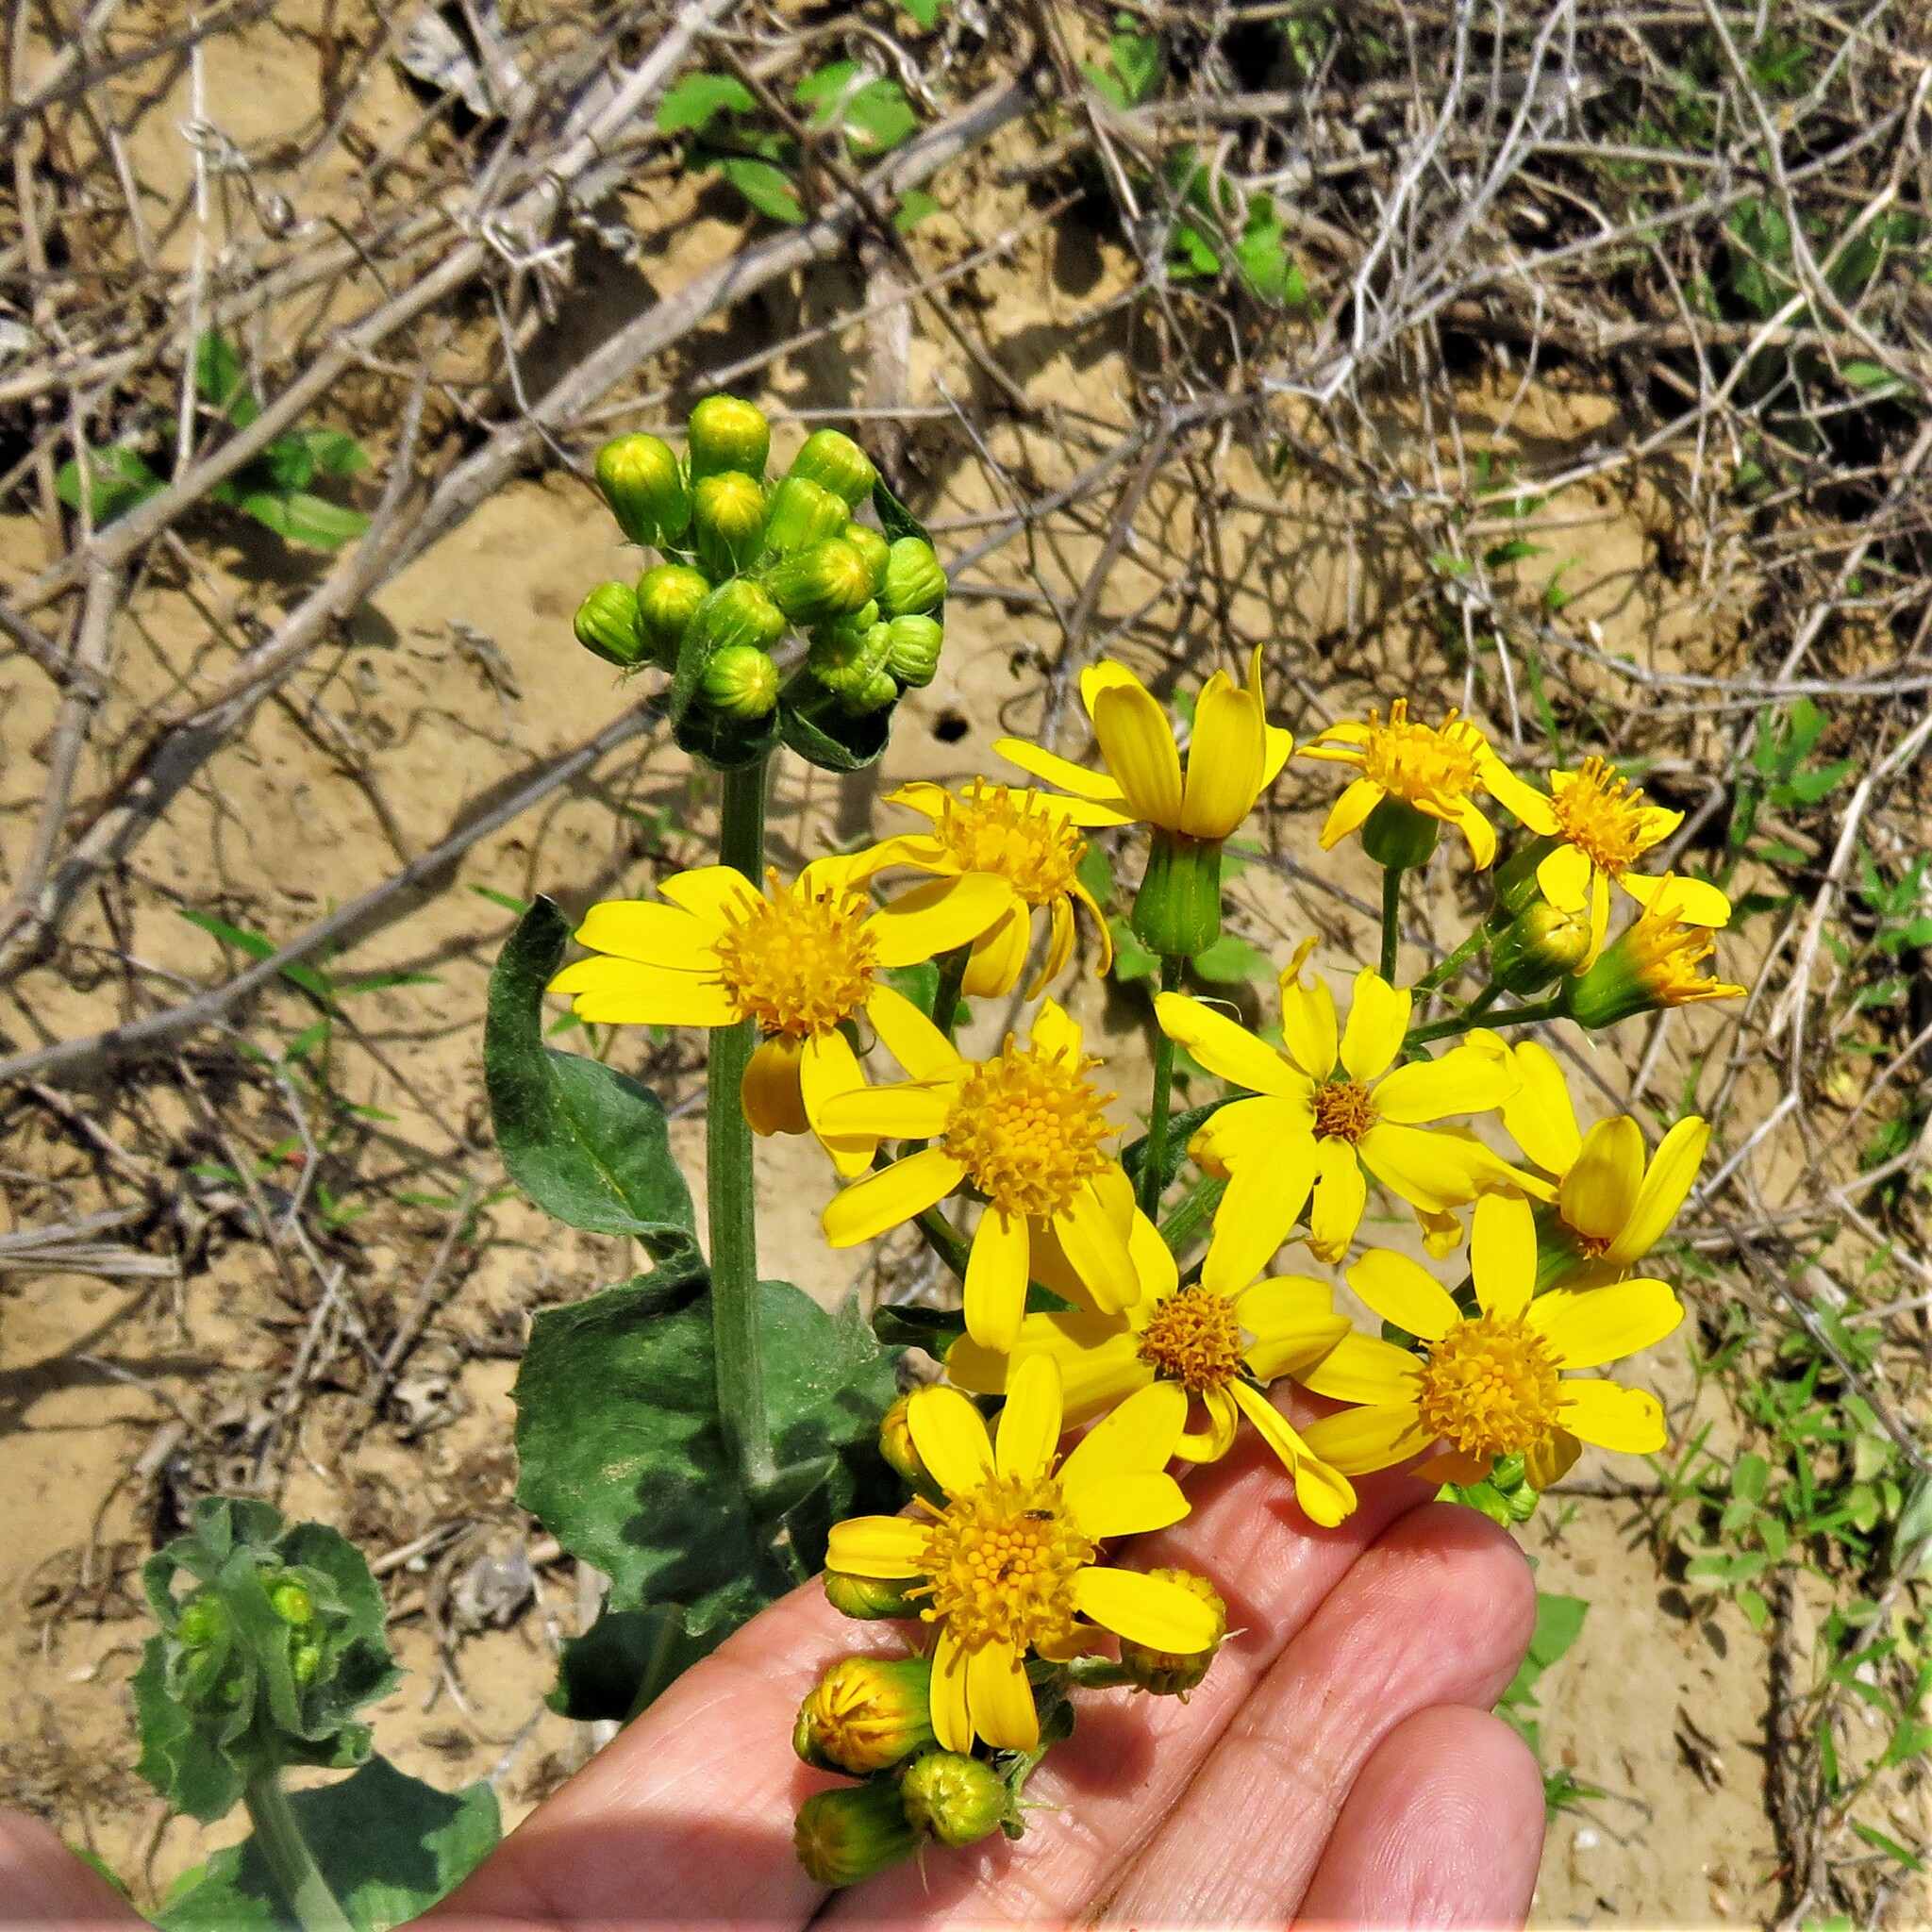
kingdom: Plantae
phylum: Tracheophyta
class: Magnoliopsida
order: Asterales
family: Asteraceae
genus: Senecio
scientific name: Senecio ampullaceus
